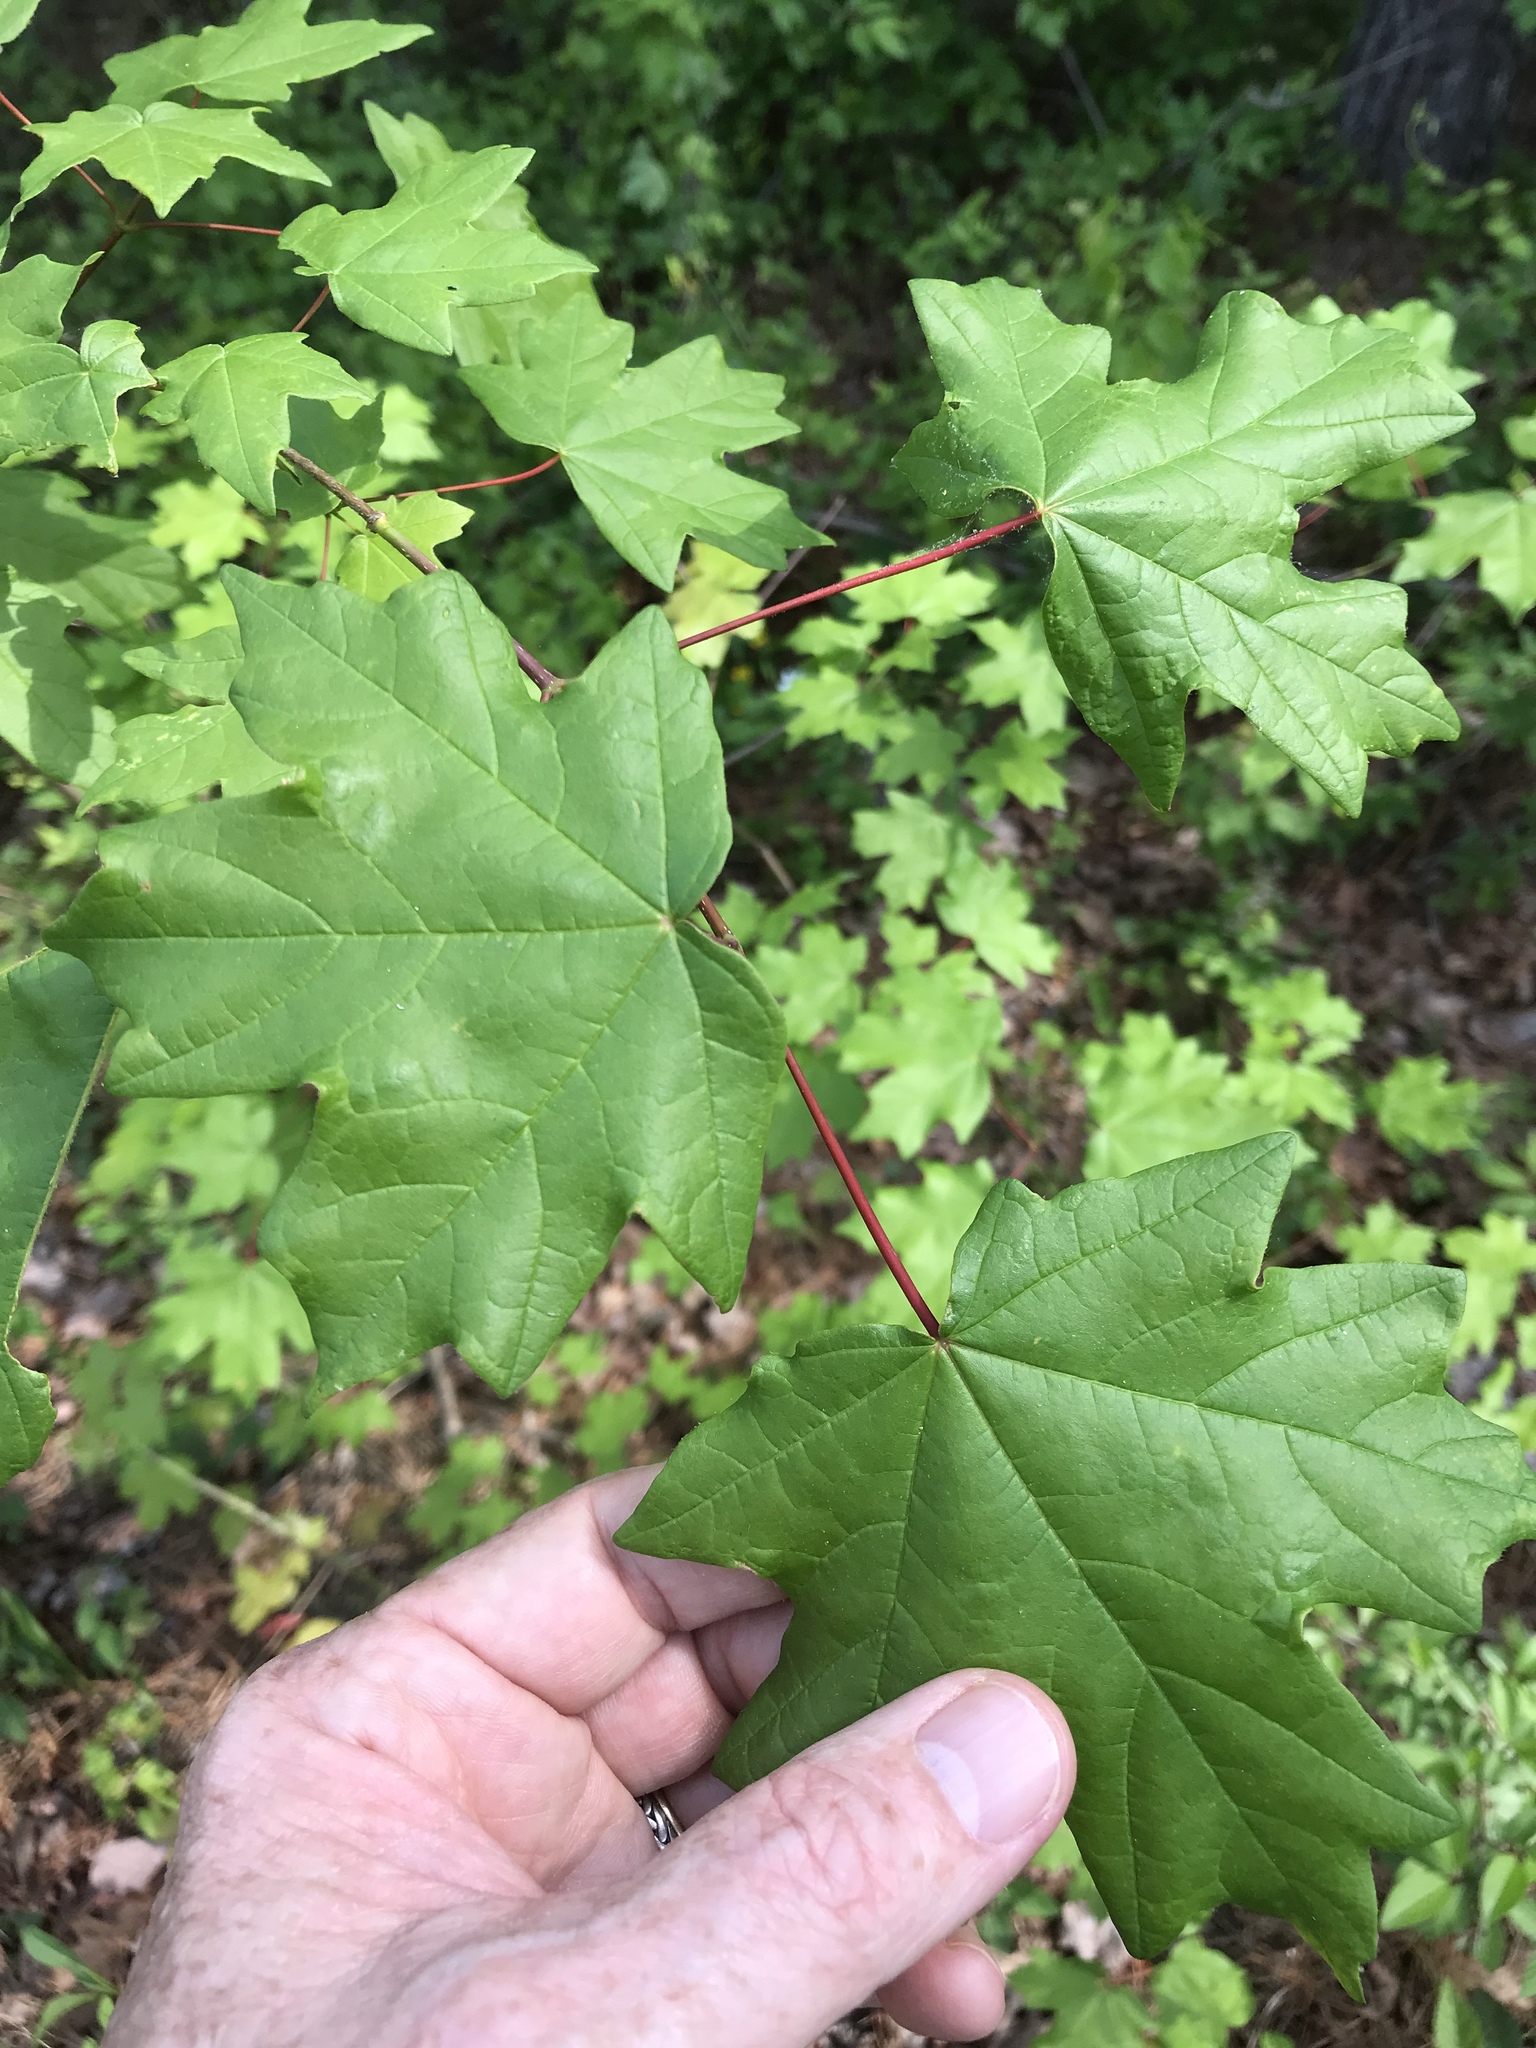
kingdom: Plantae
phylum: Tracheophyta
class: Magnoliopsida
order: Sapindales
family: Sapindaceae
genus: Acer
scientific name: Acer floridanum
